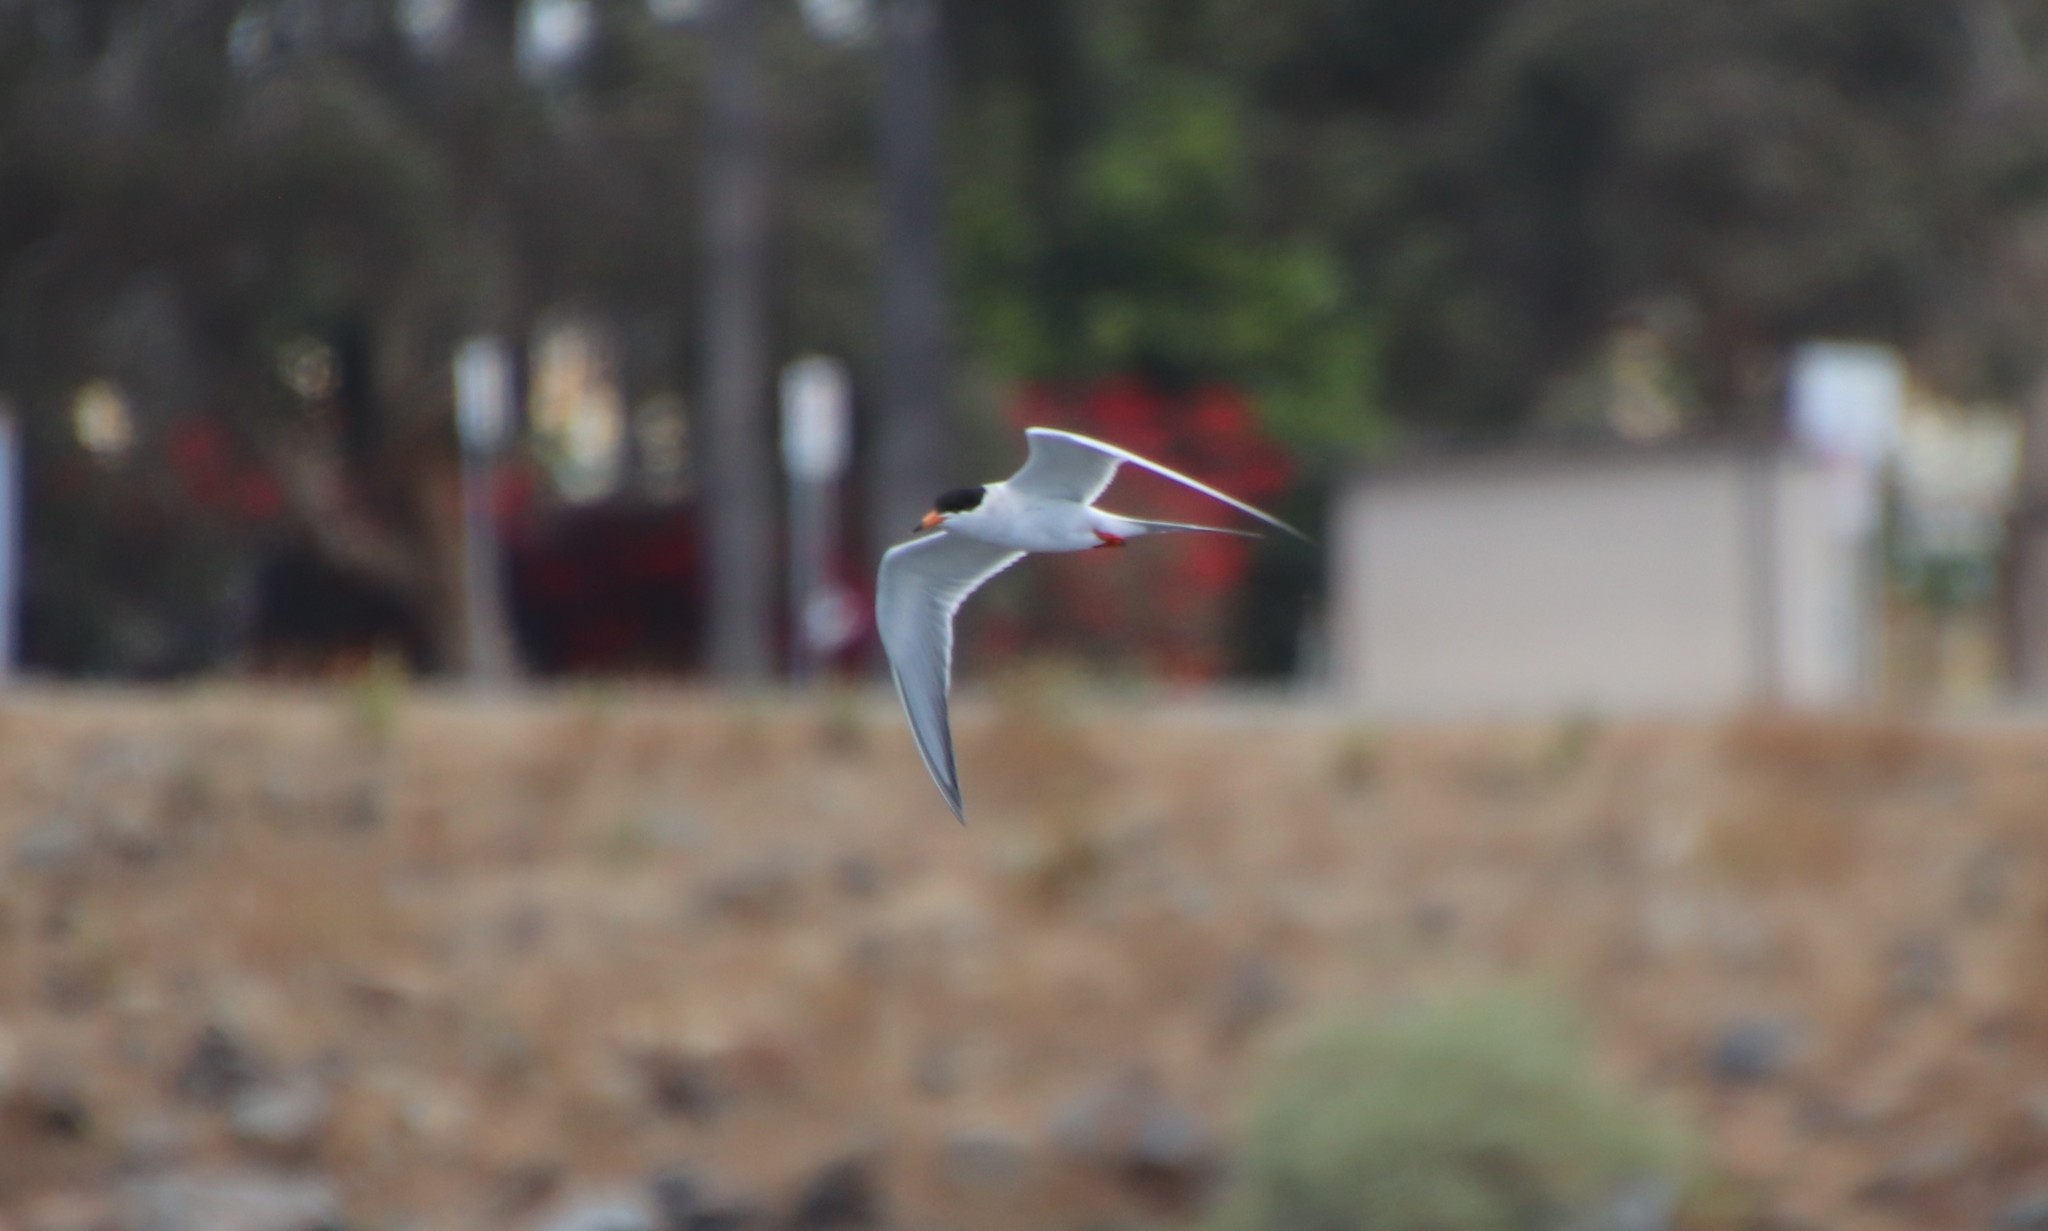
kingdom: Animalia
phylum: Chordata
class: Aves
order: Charadriiformes
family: Laridae
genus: Sterna
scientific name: Sterna forsteri
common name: Forster's tern
